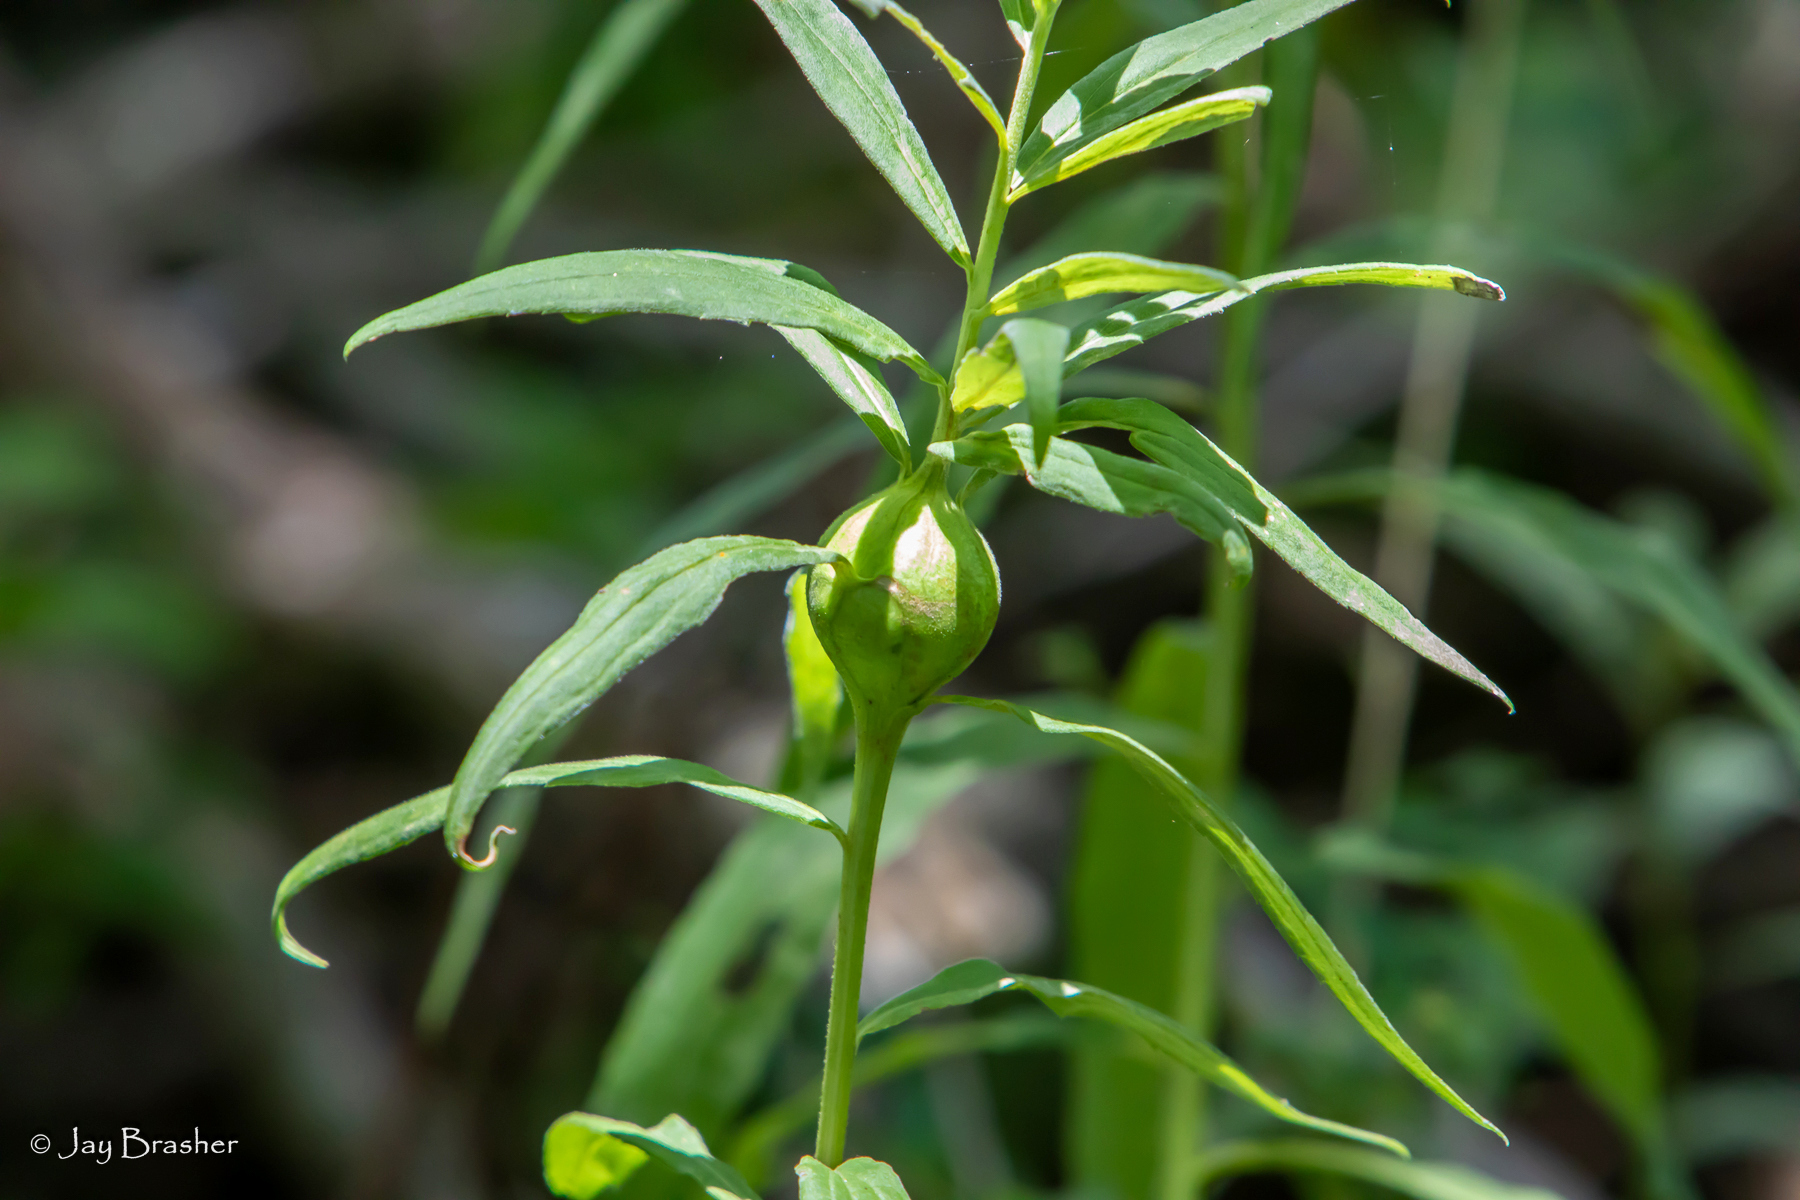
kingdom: Animalia
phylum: Arthropoda
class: Insecta
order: Diptera
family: Tephritidae
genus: Eurosta
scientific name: Eurosta solidaginis
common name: Goldenrod gall fly
